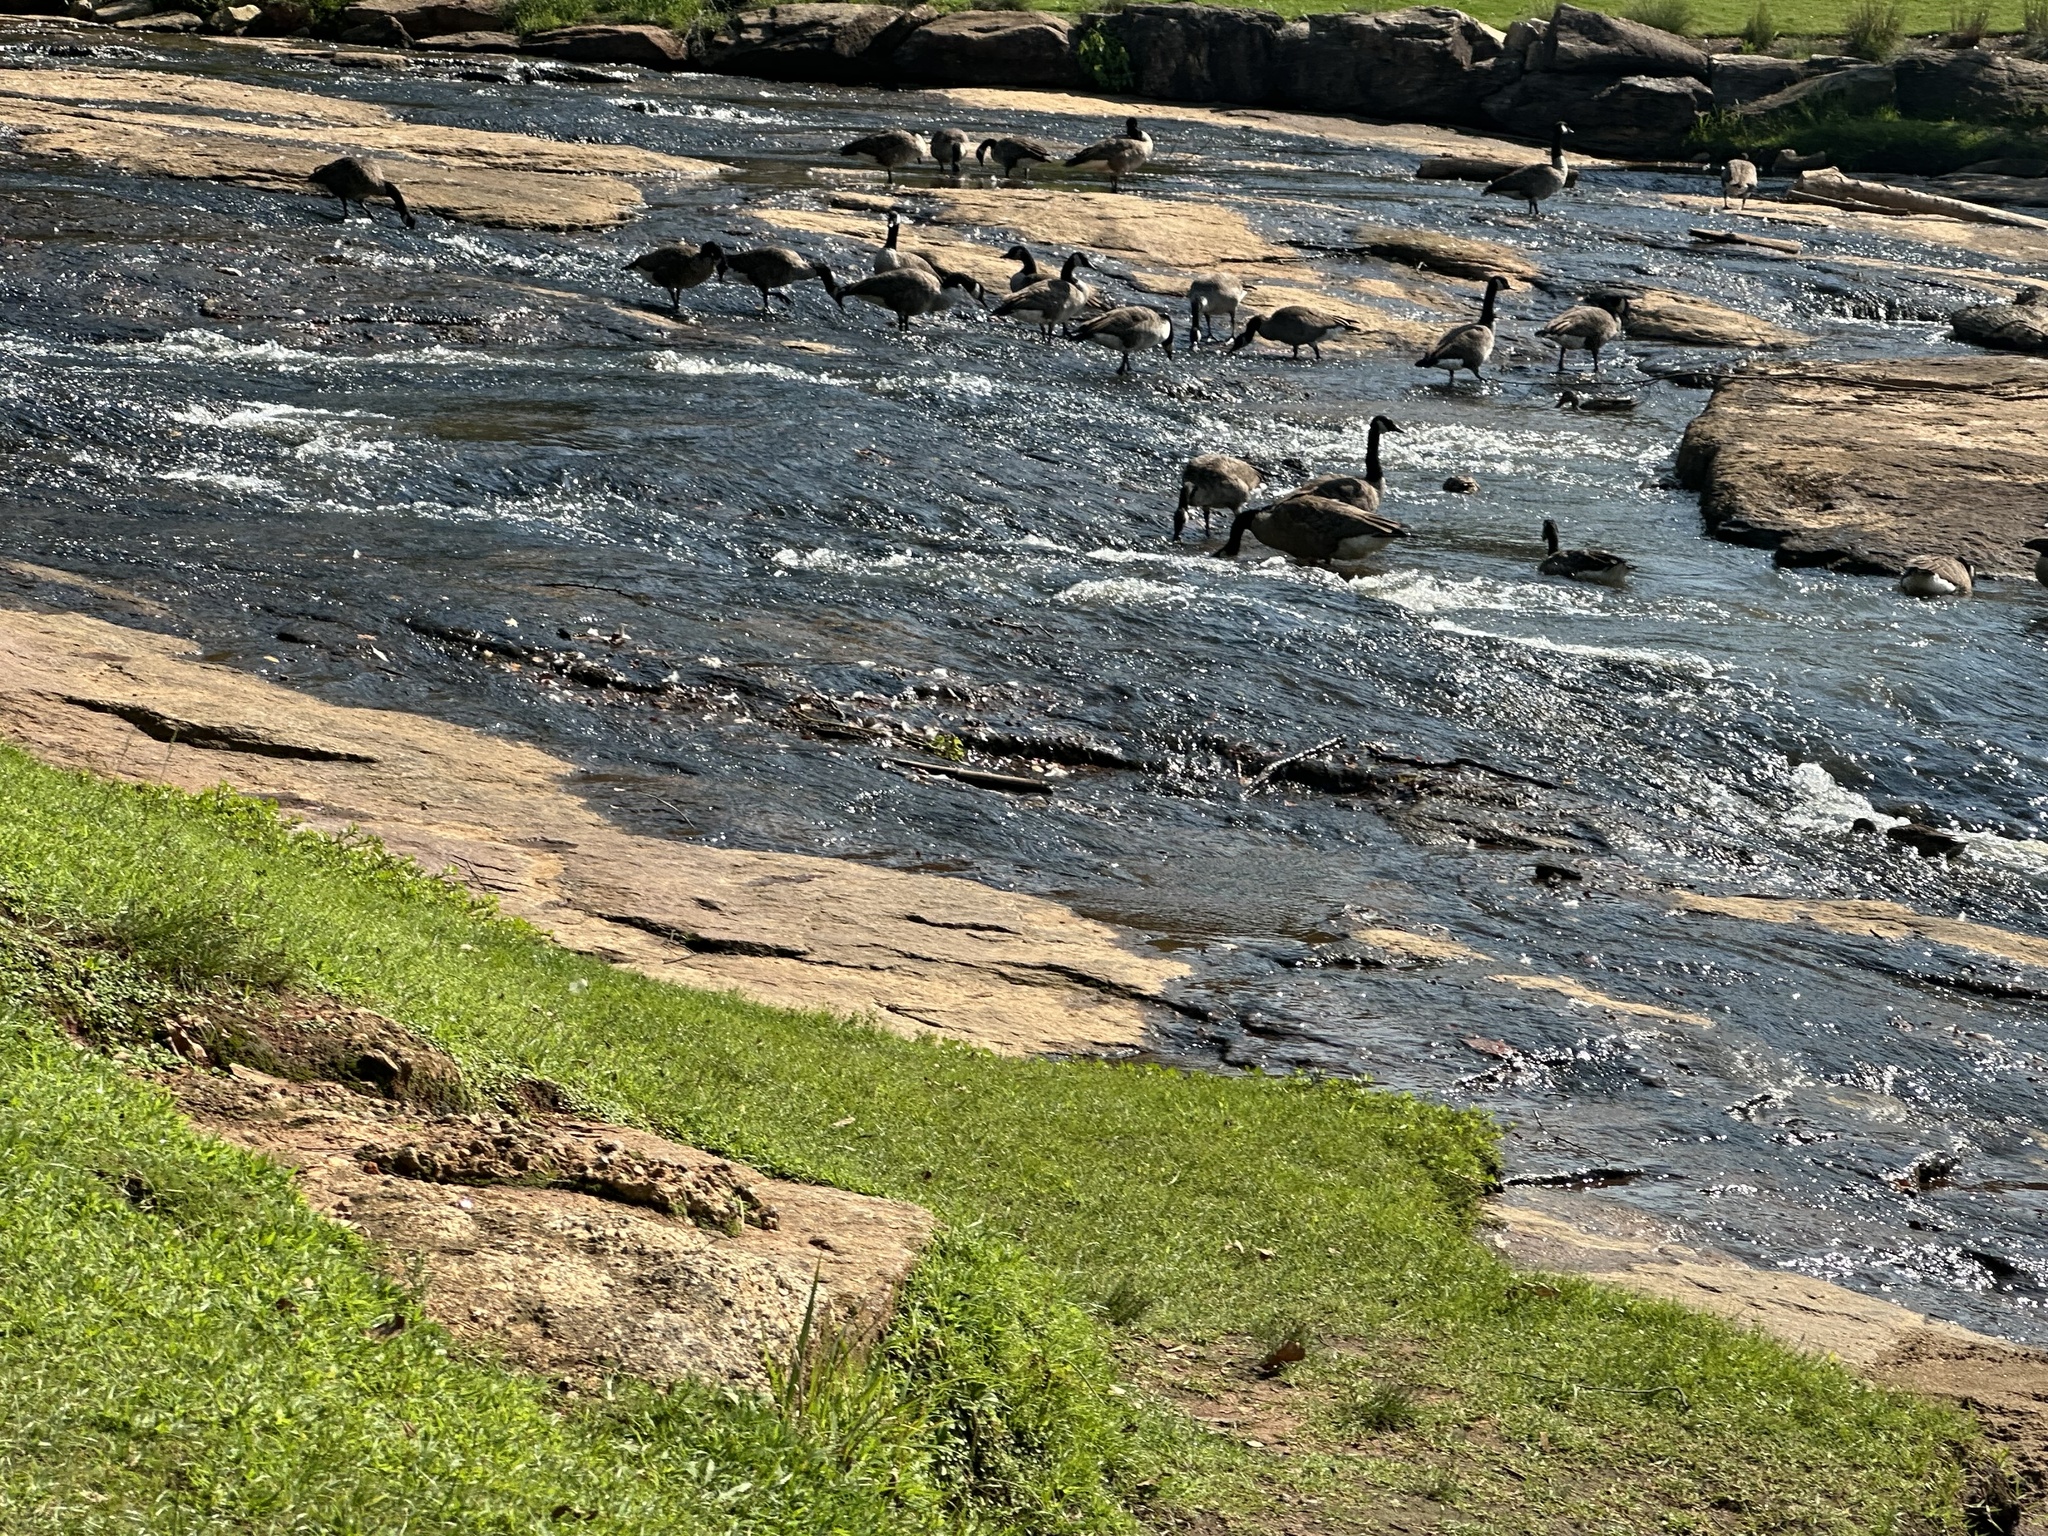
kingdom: Animalia
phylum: Chordata
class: Aves
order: Anseriformes
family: Anatidae
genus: Branta
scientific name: Branta canadensis
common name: Canada goose
